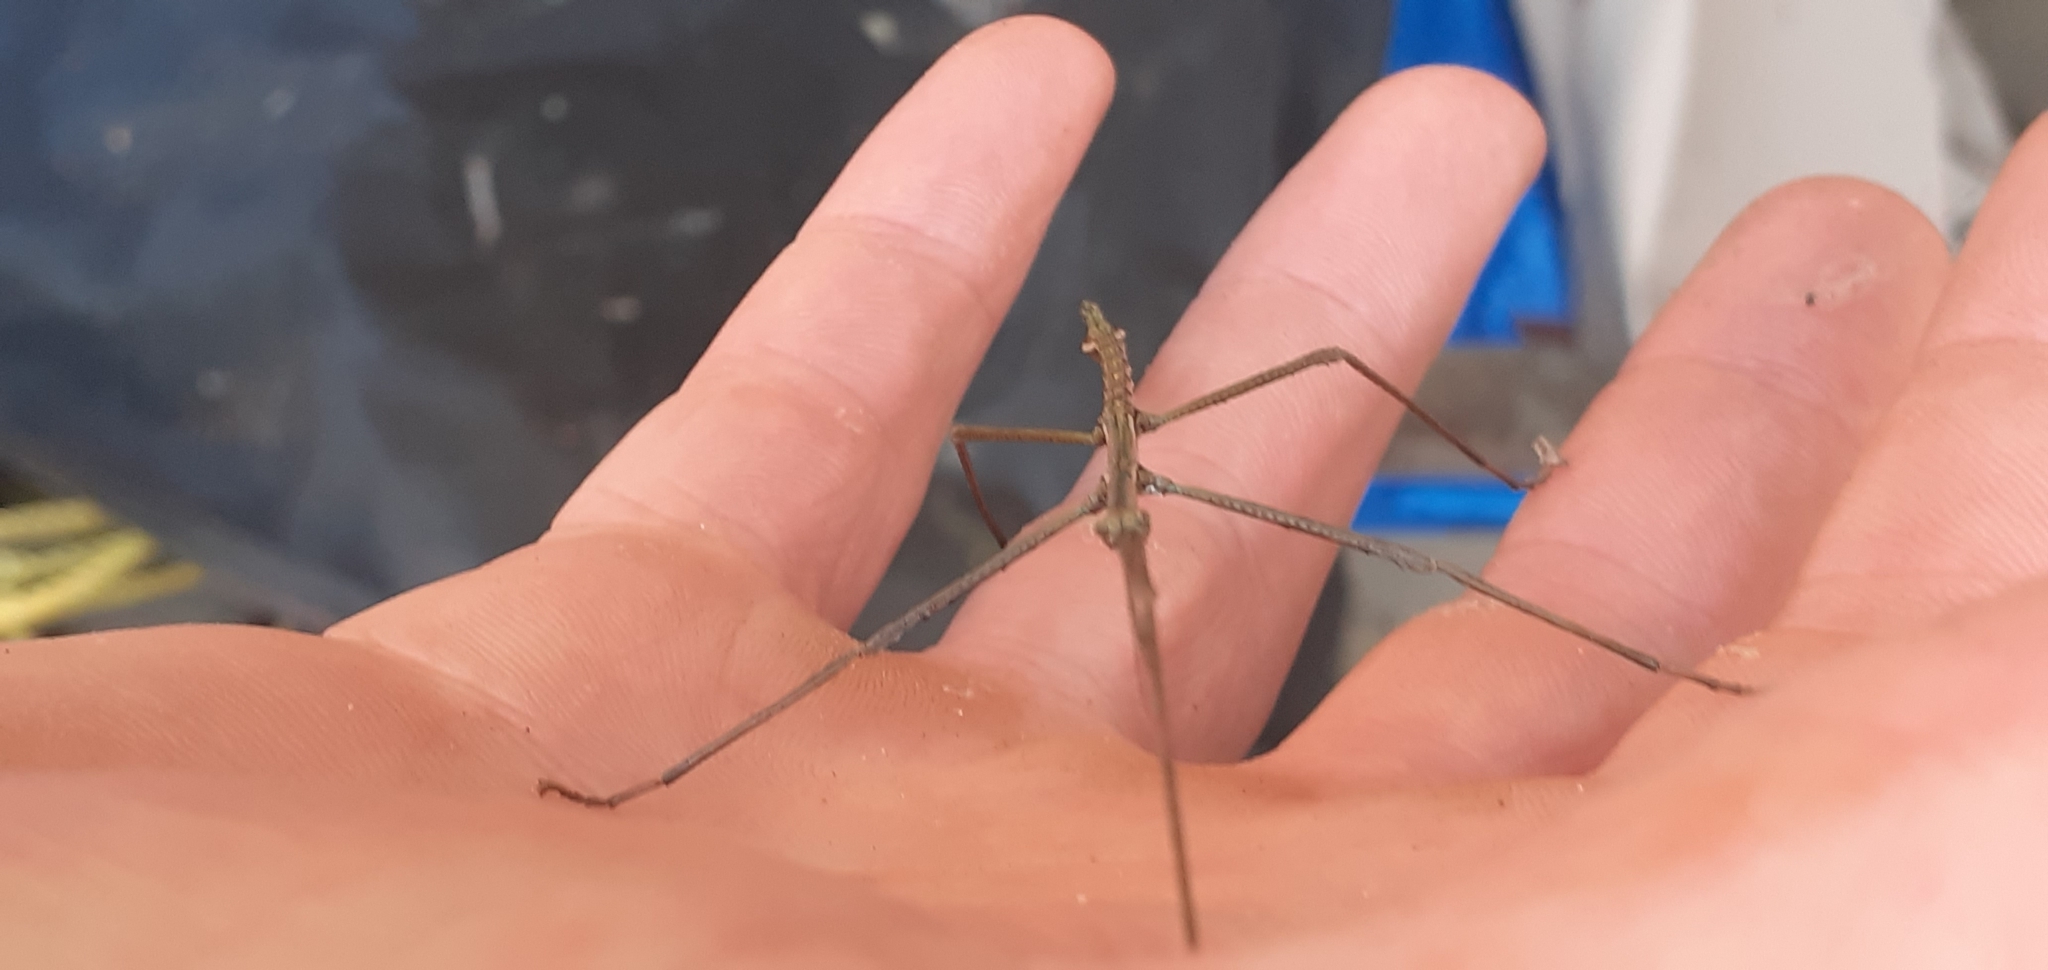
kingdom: Animalia
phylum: Arthropoda
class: Insecta
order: Phasmida
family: Phasmatidae
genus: Clitarchus
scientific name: Clitarchus hookeri
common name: Smooth stick insect
